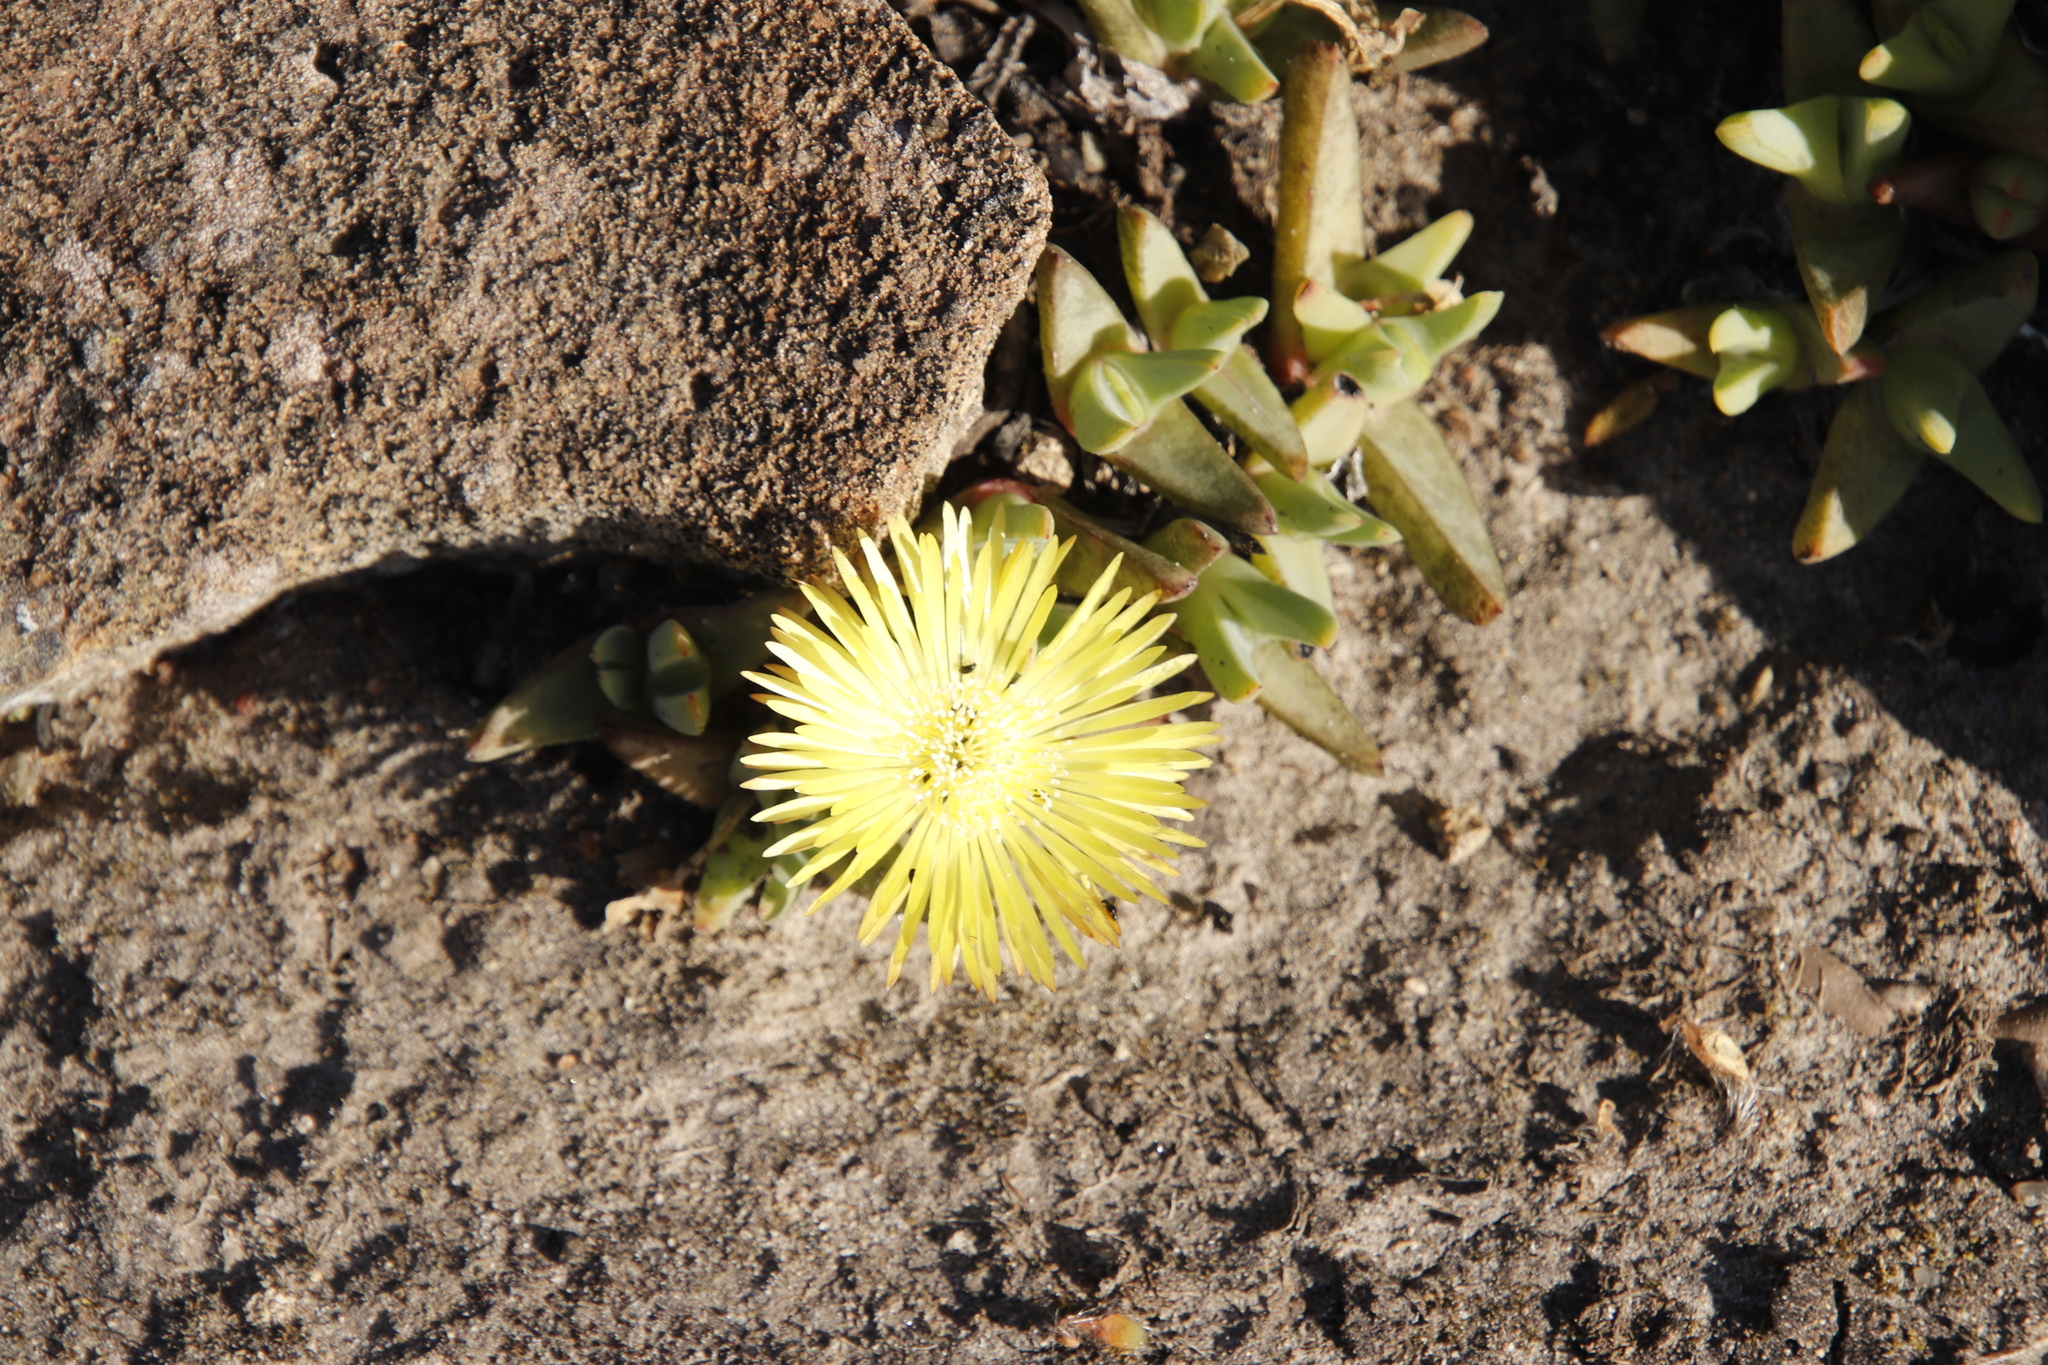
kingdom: Plantae
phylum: Tracheophyta
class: Magnoliopsida
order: Caryophyllales
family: Aizoaceae
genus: Cheiridopsis
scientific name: Cheiridopsis rostrata
